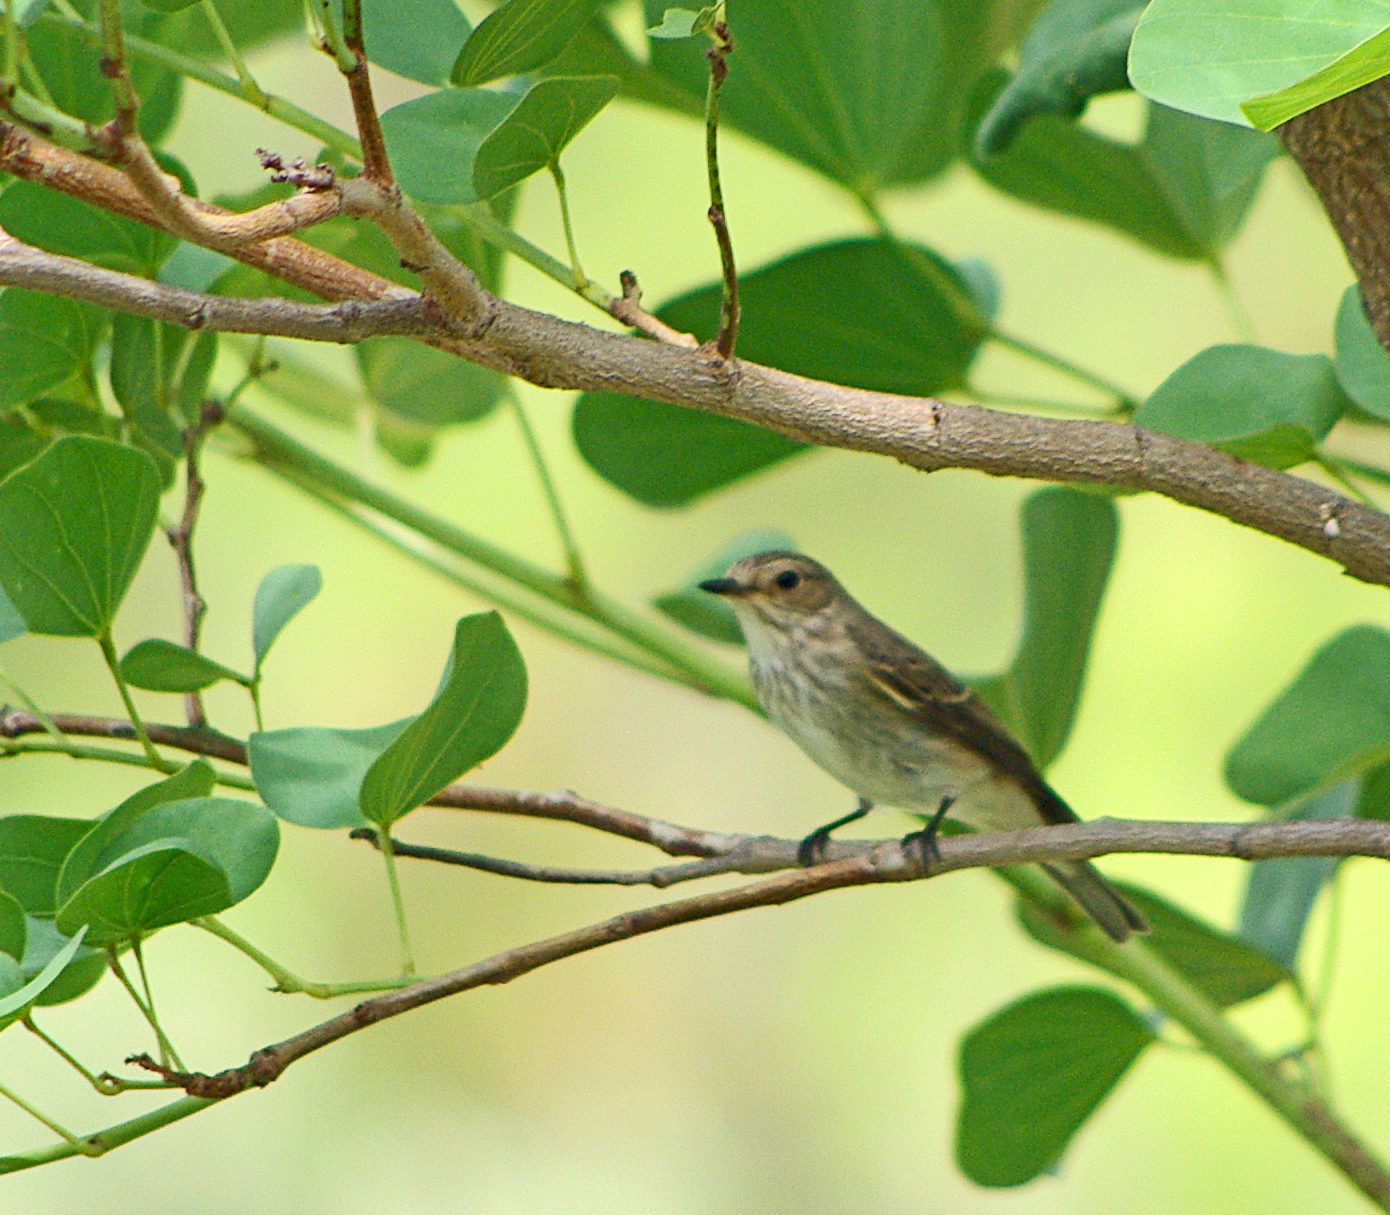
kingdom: Animalia
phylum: Chordata
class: Aves
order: Passeriformes
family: Muscicapidae
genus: Muscicapa
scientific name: Muscicapa striata
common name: Spotted flycatcher
